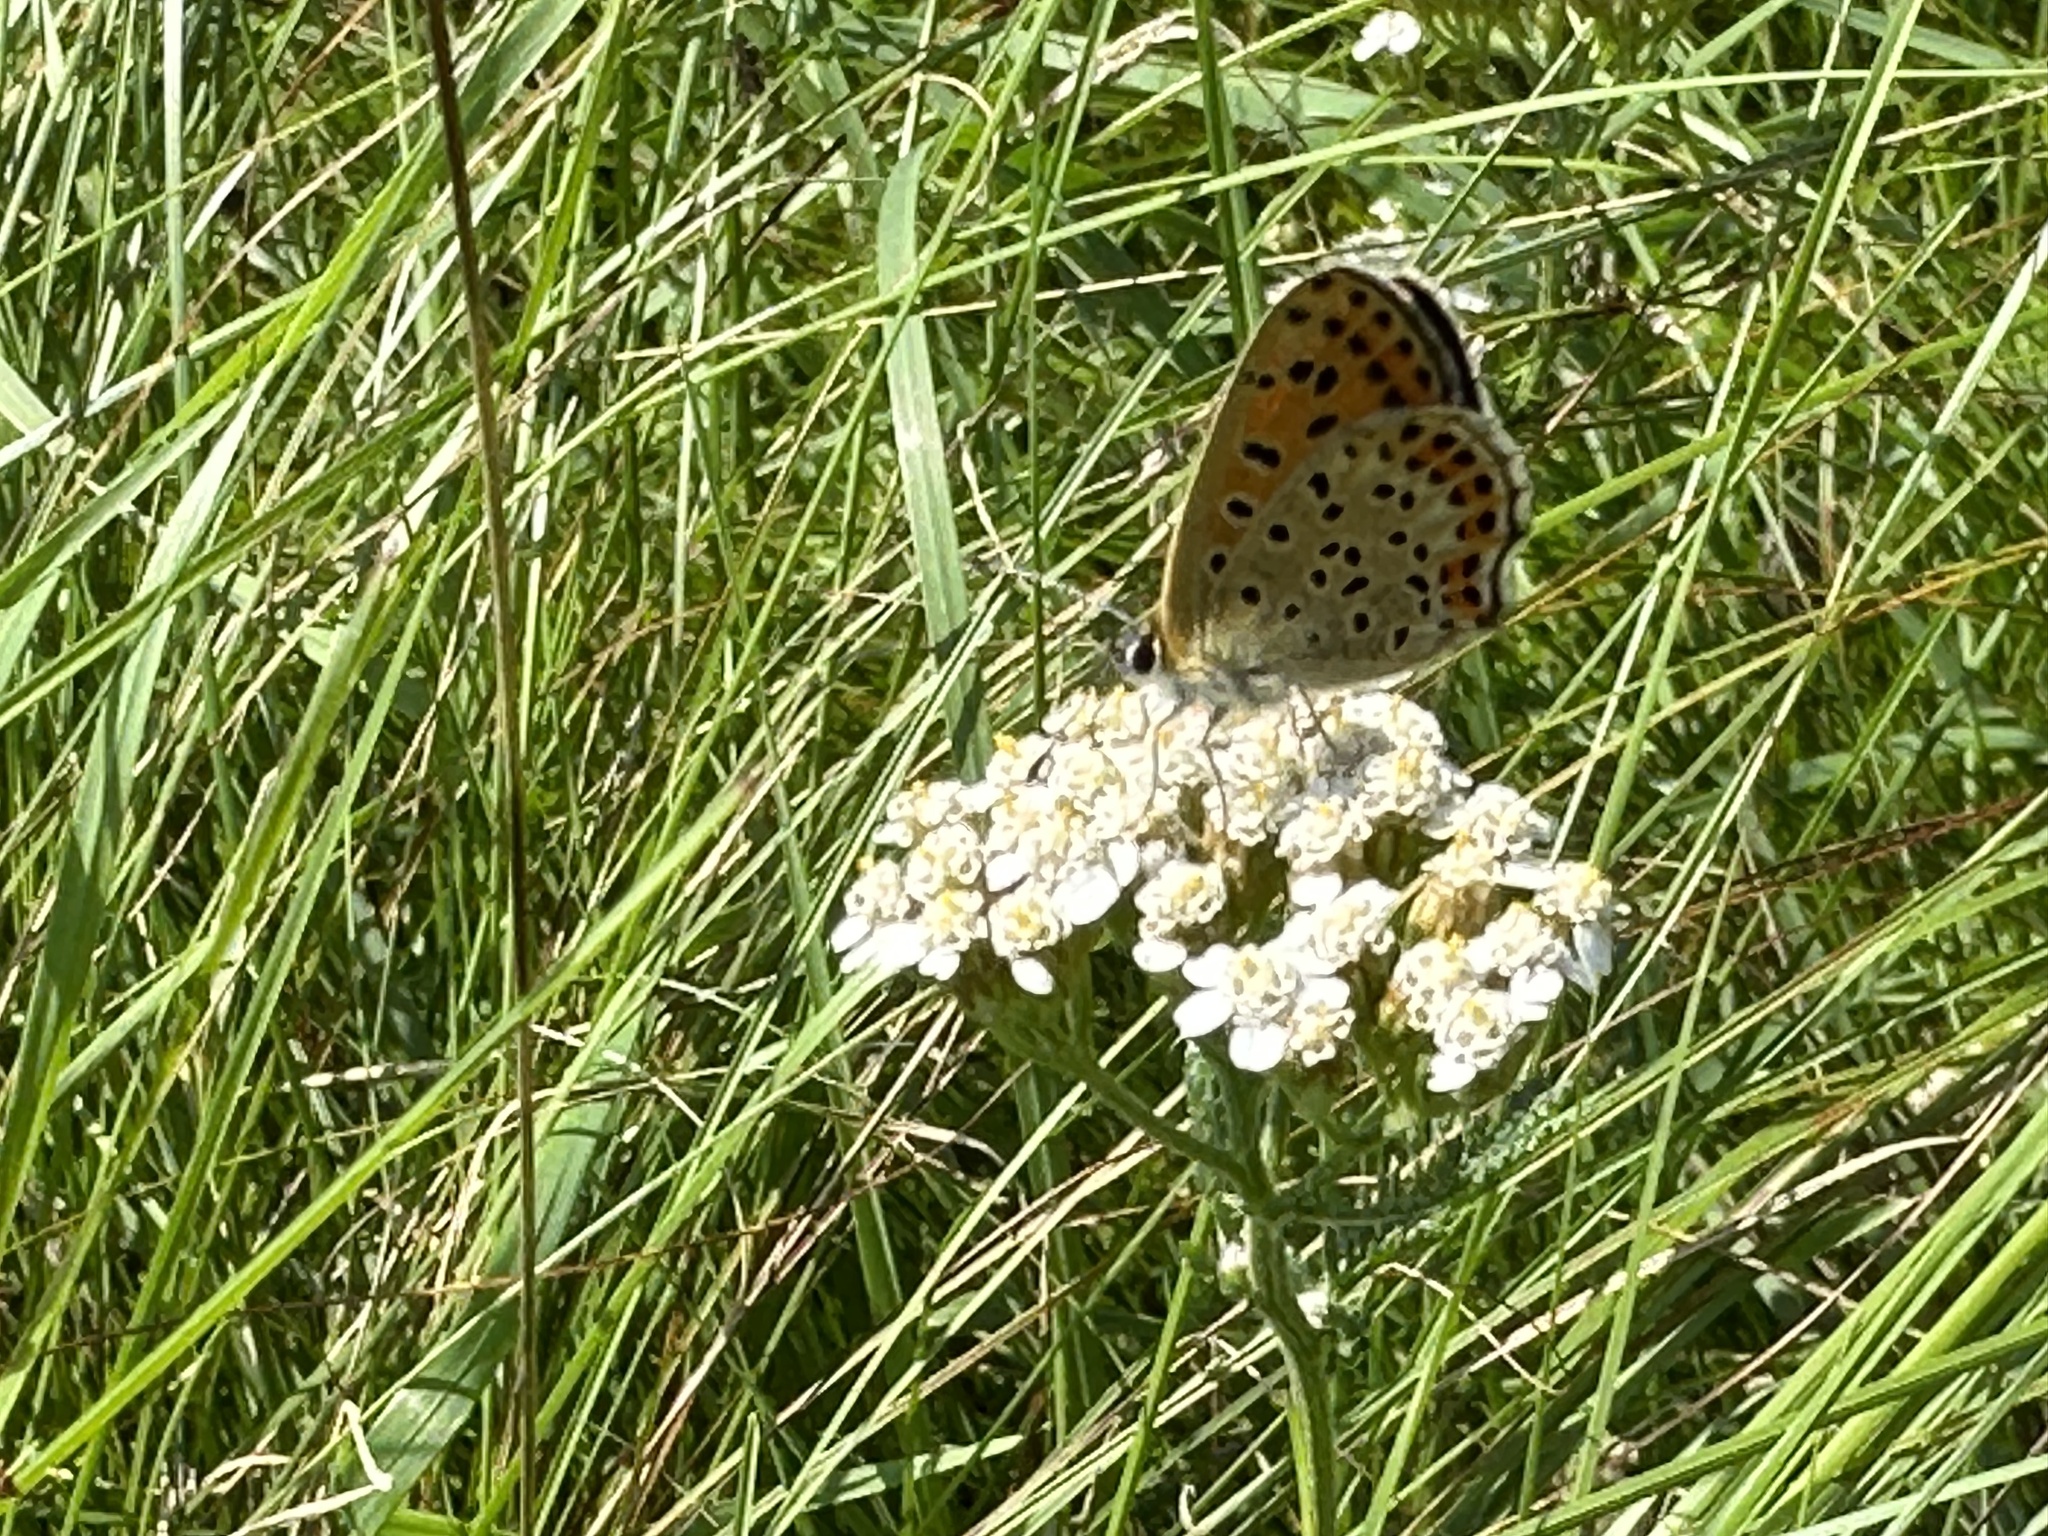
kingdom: Animalia
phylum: Arthropoda
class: Insecta
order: Lepidoptera
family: Lycaenidae
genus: Loweia
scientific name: Loweia tityrus
